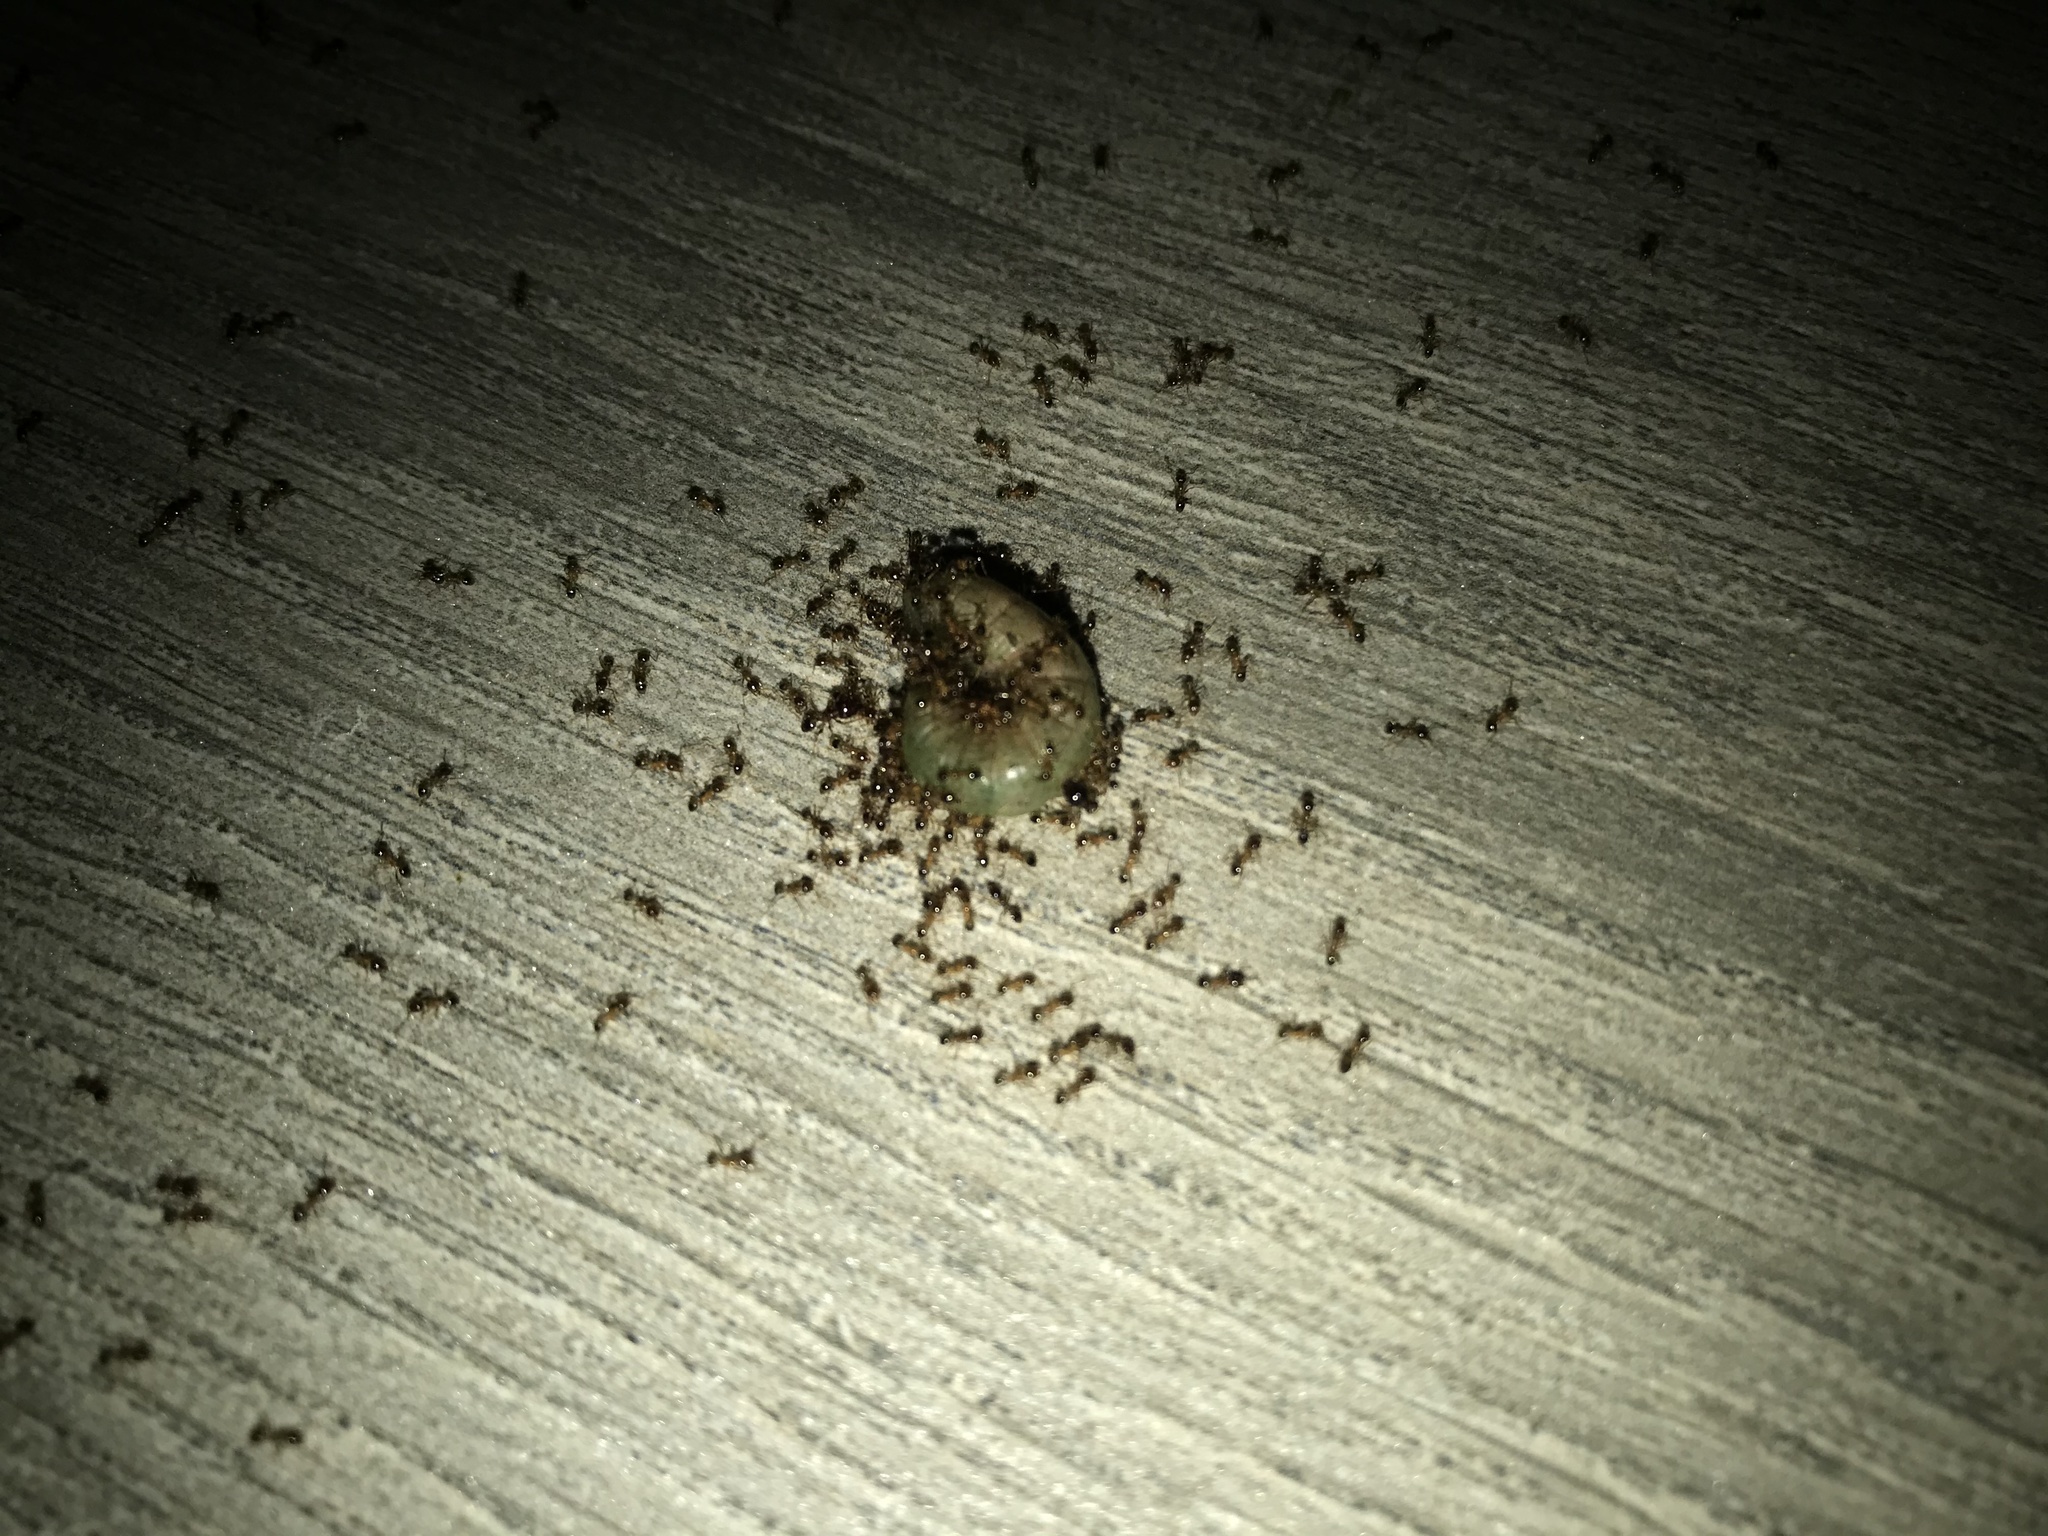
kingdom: Animalia
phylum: Arthropoda
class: Insecta
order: Hymenoptera
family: Formicidae
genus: Pheidole
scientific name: Pheidole megacephala
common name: Bigheaded ant
